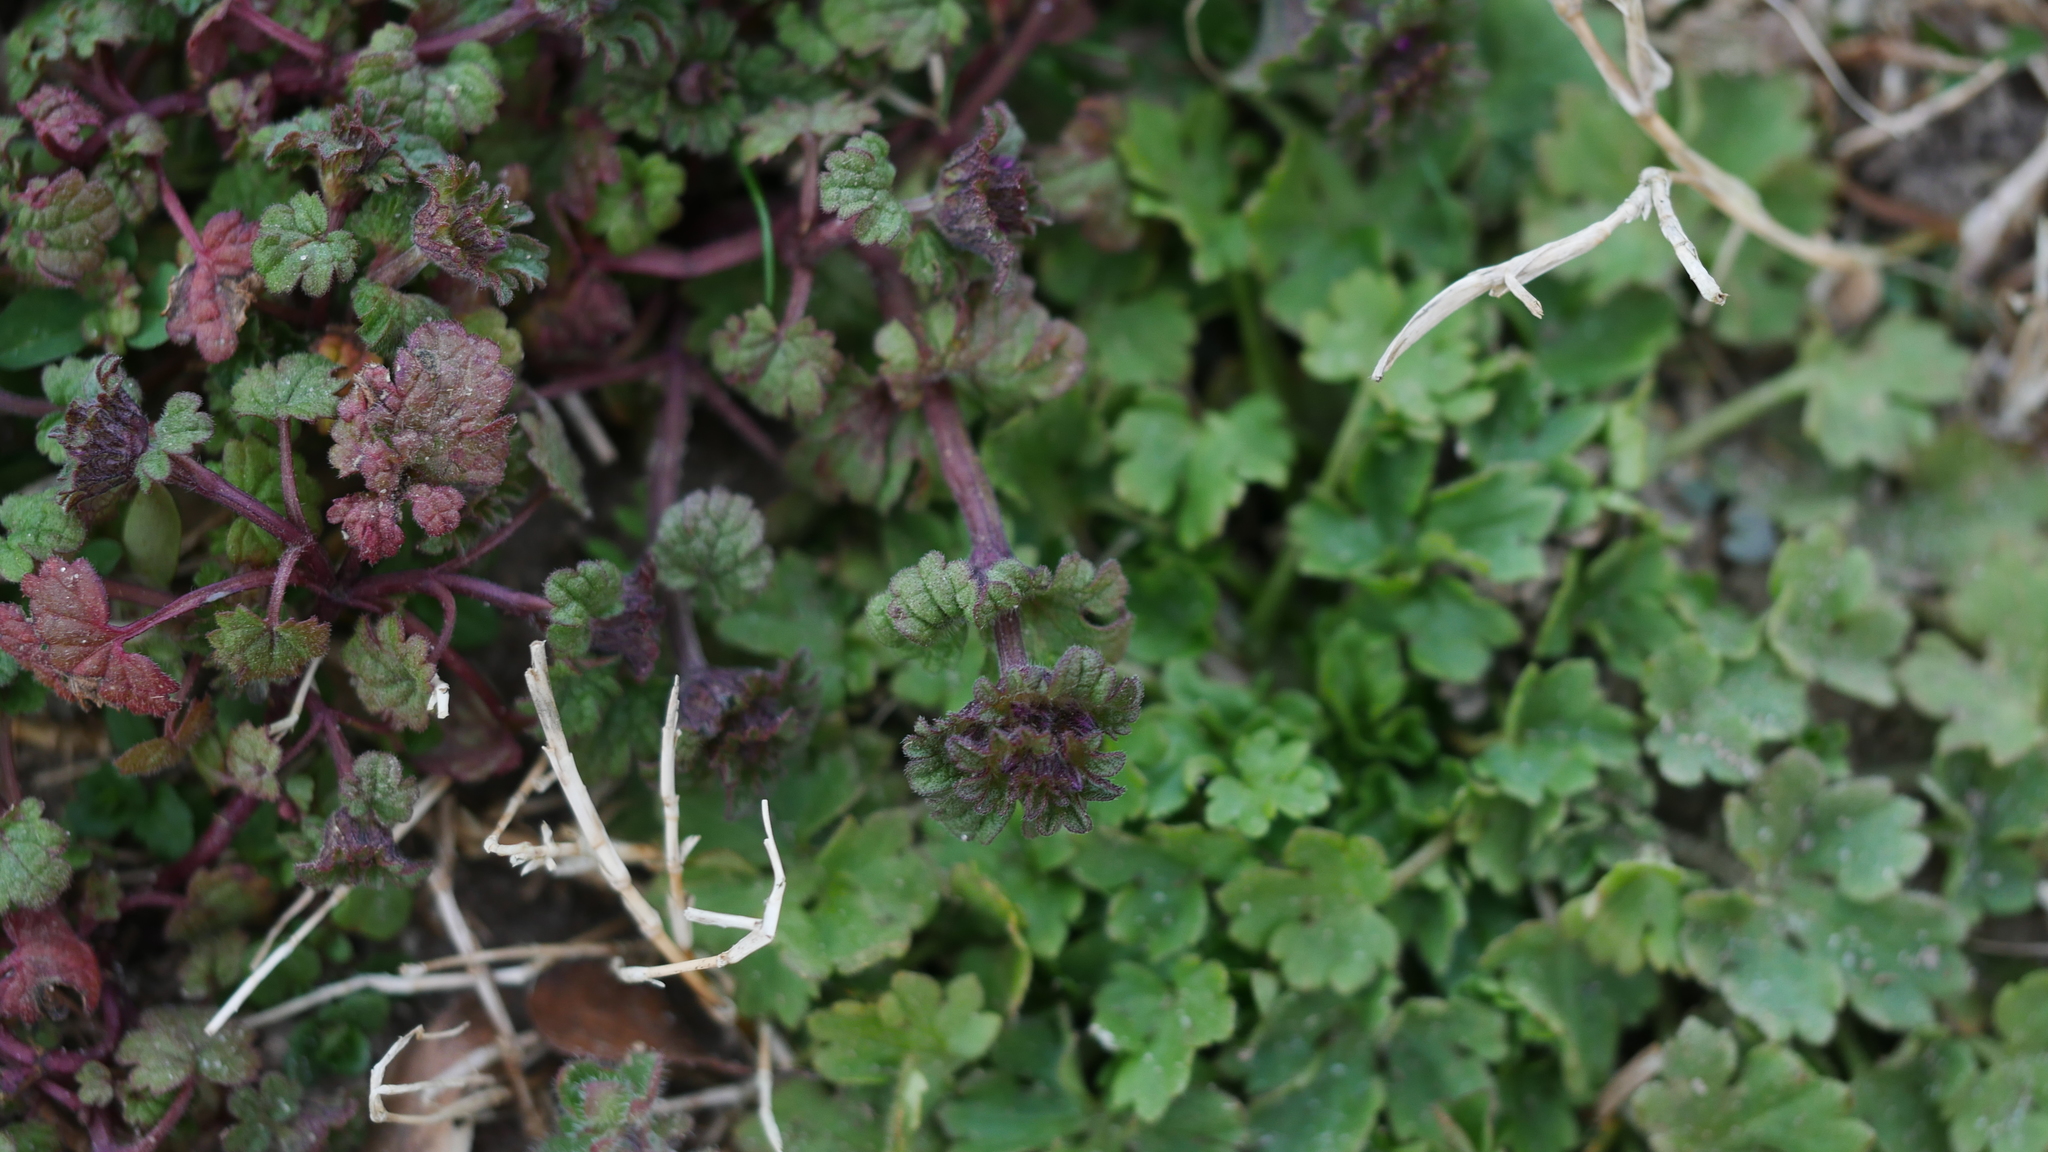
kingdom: Plantae
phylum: Tracheophyta
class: Magnoliopsida
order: Lamiales
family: Lamiaceae
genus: Lamium
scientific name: Lamium amplexicaule
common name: Henbit dead-nettle
